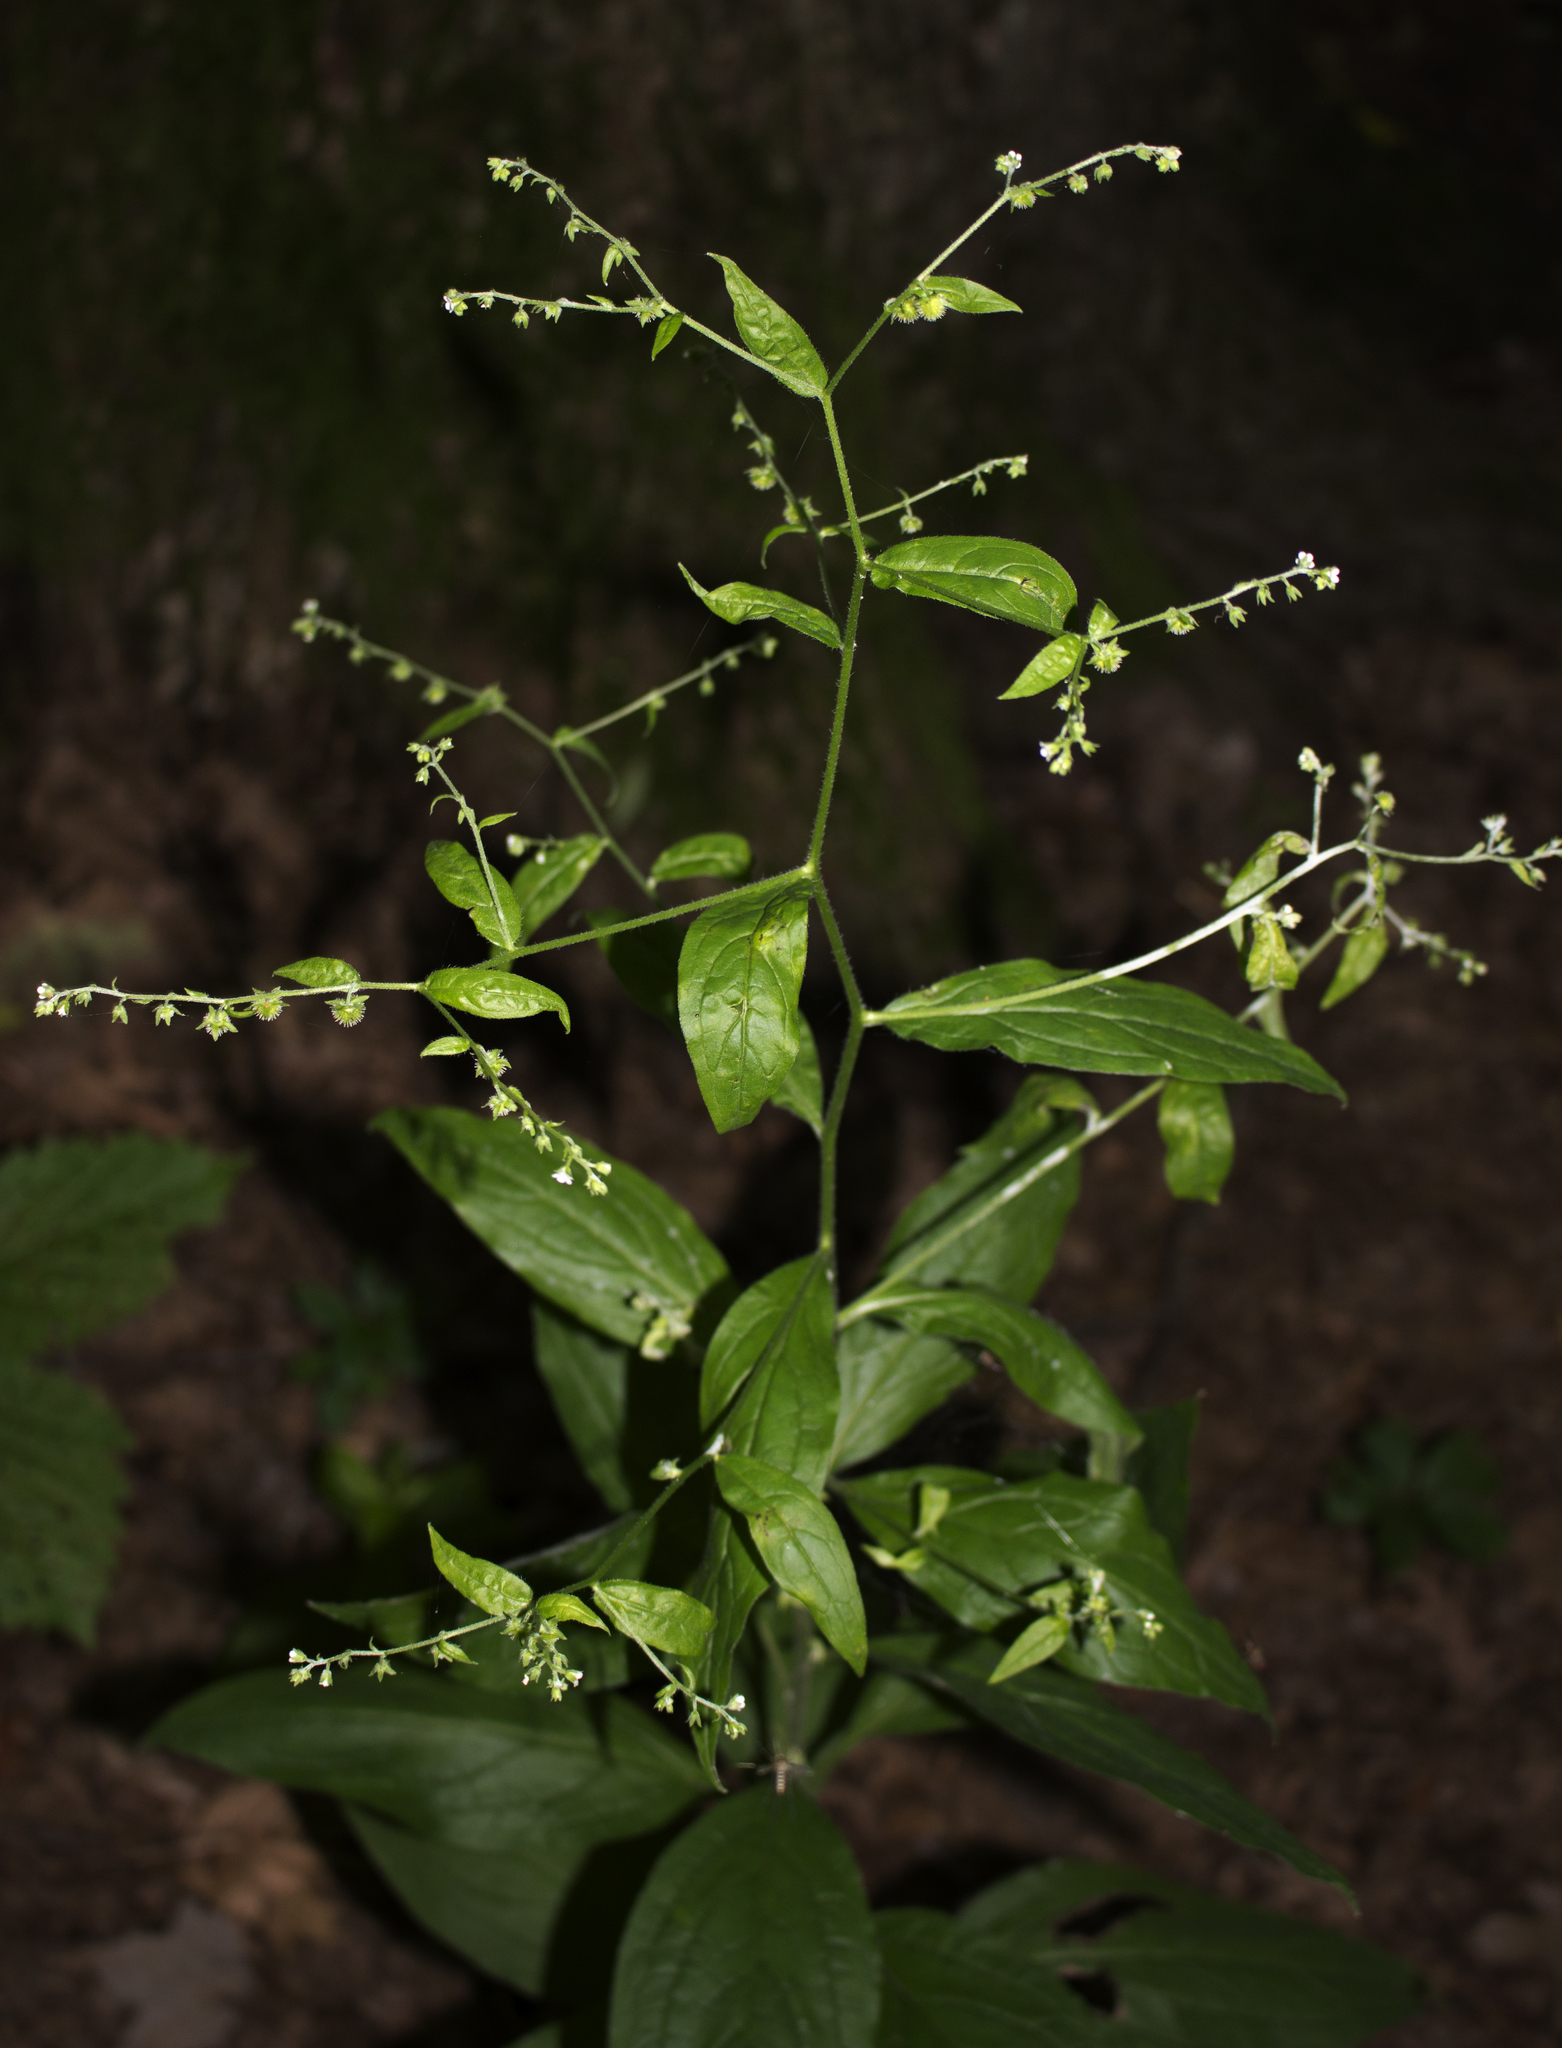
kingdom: Plantae
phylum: Tracheophyta
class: Magnoliopsida
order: Boraginales
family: Boraginaceae
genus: Hackelia
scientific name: Hackelia virginiana
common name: Beggar's-lice
